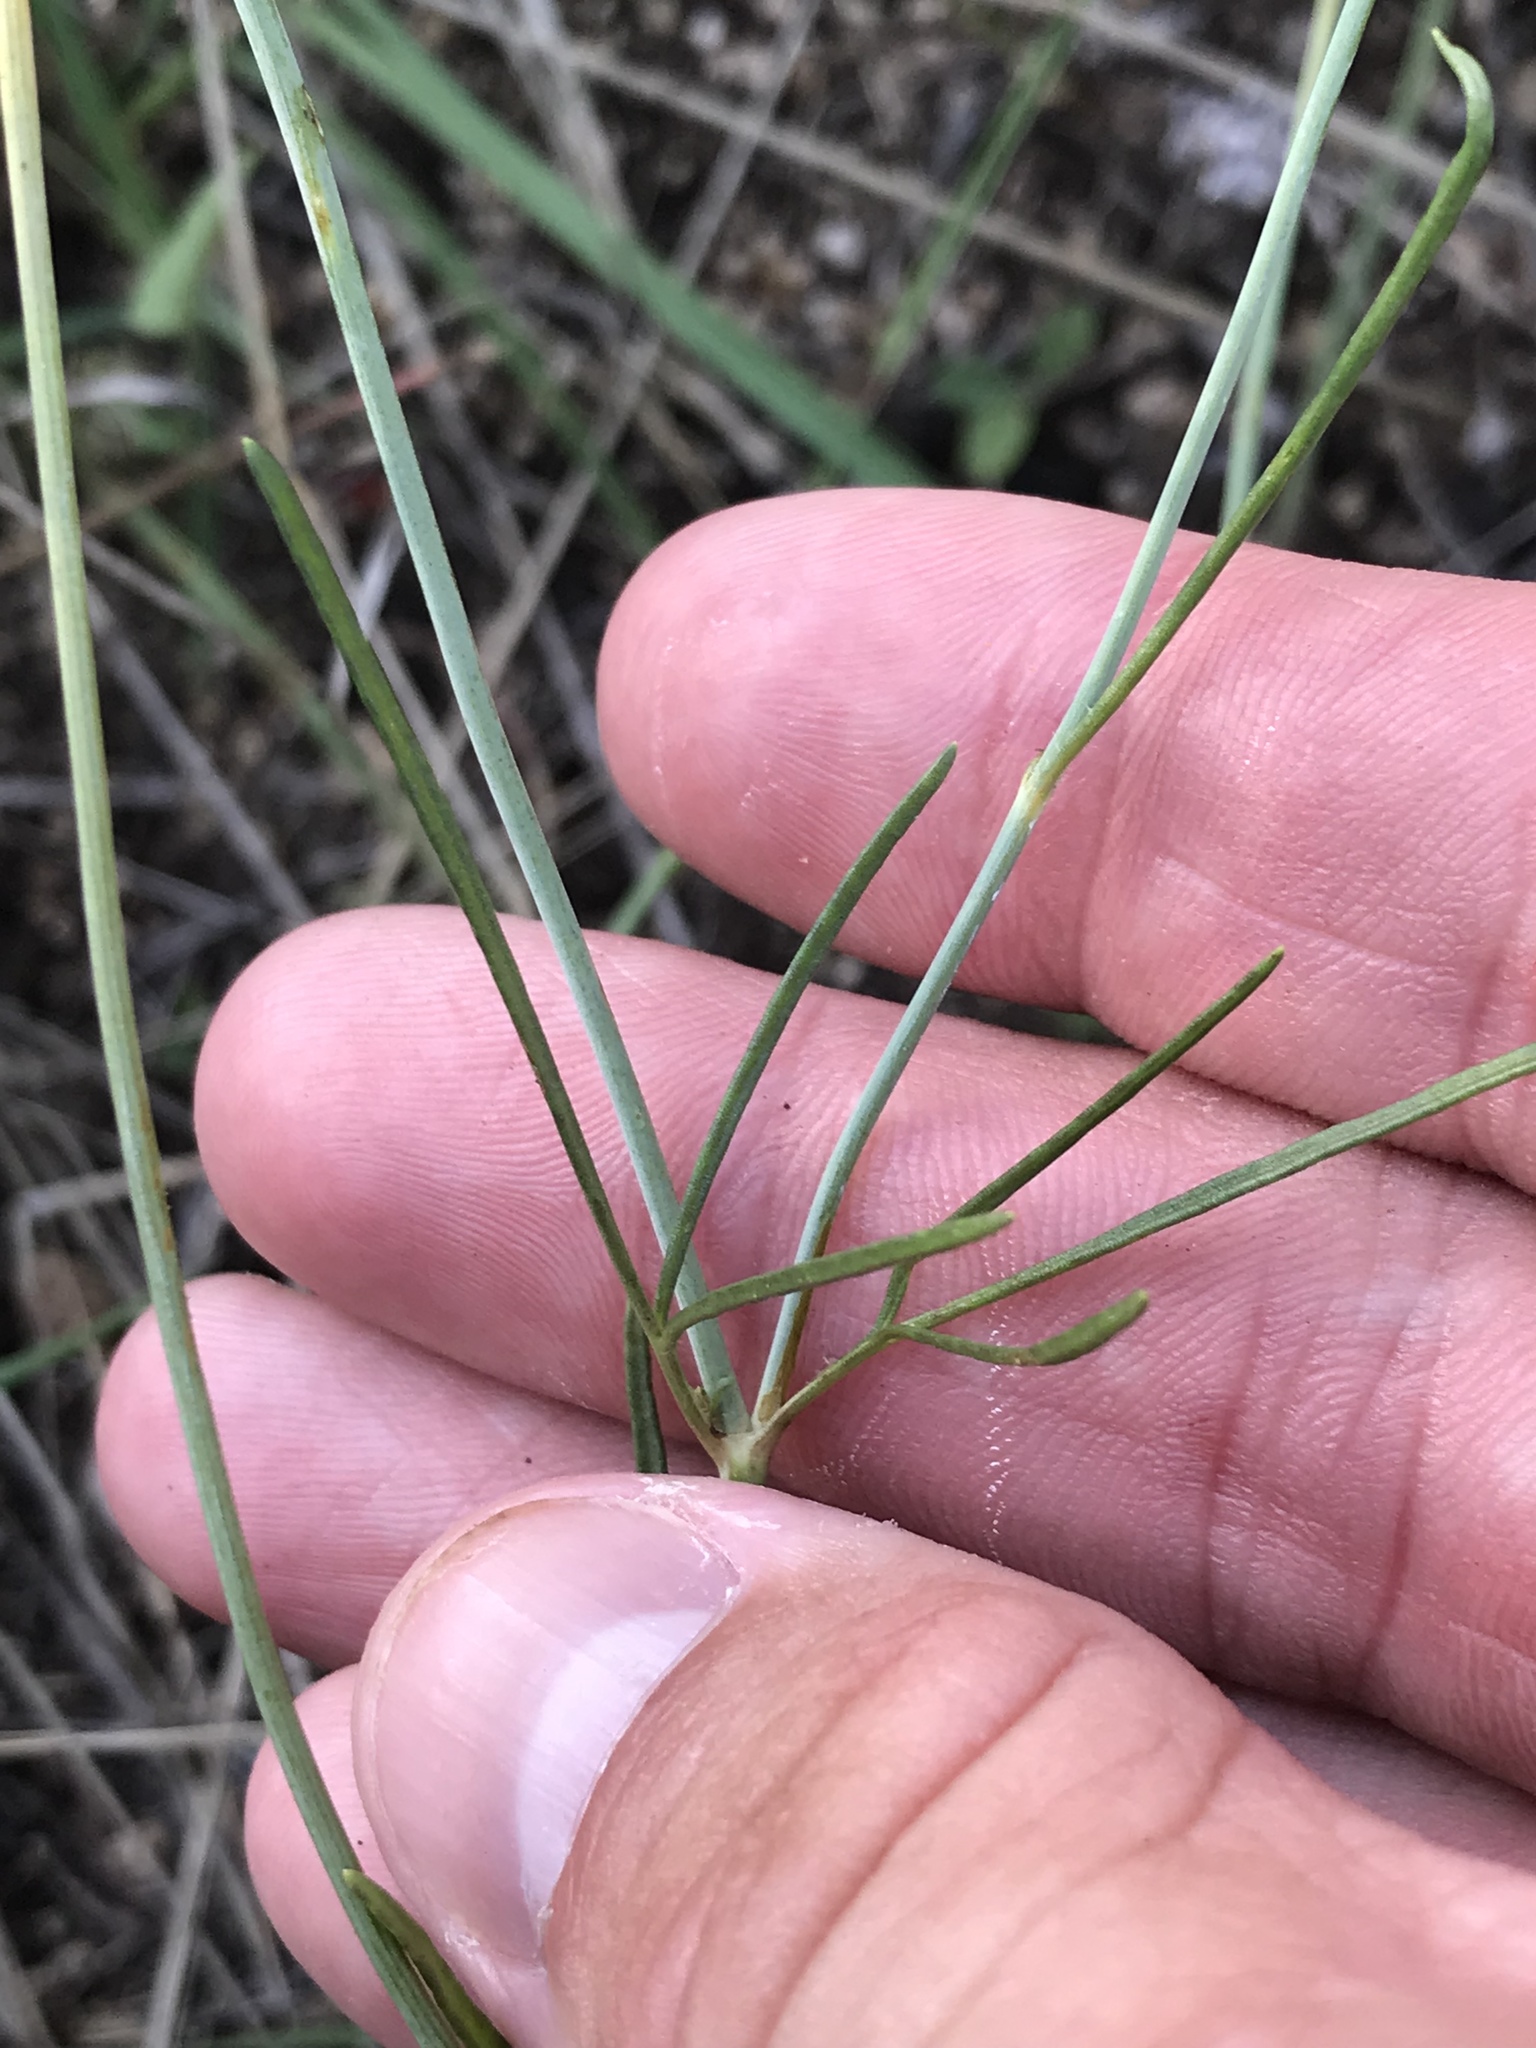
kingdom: Plantae
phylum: Tracheophyta
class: Magnoliopsida
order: Asterales
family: Asteraceae
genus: Thelesperma
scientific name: Thelesperma filifolium
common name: Stiff greenthread
